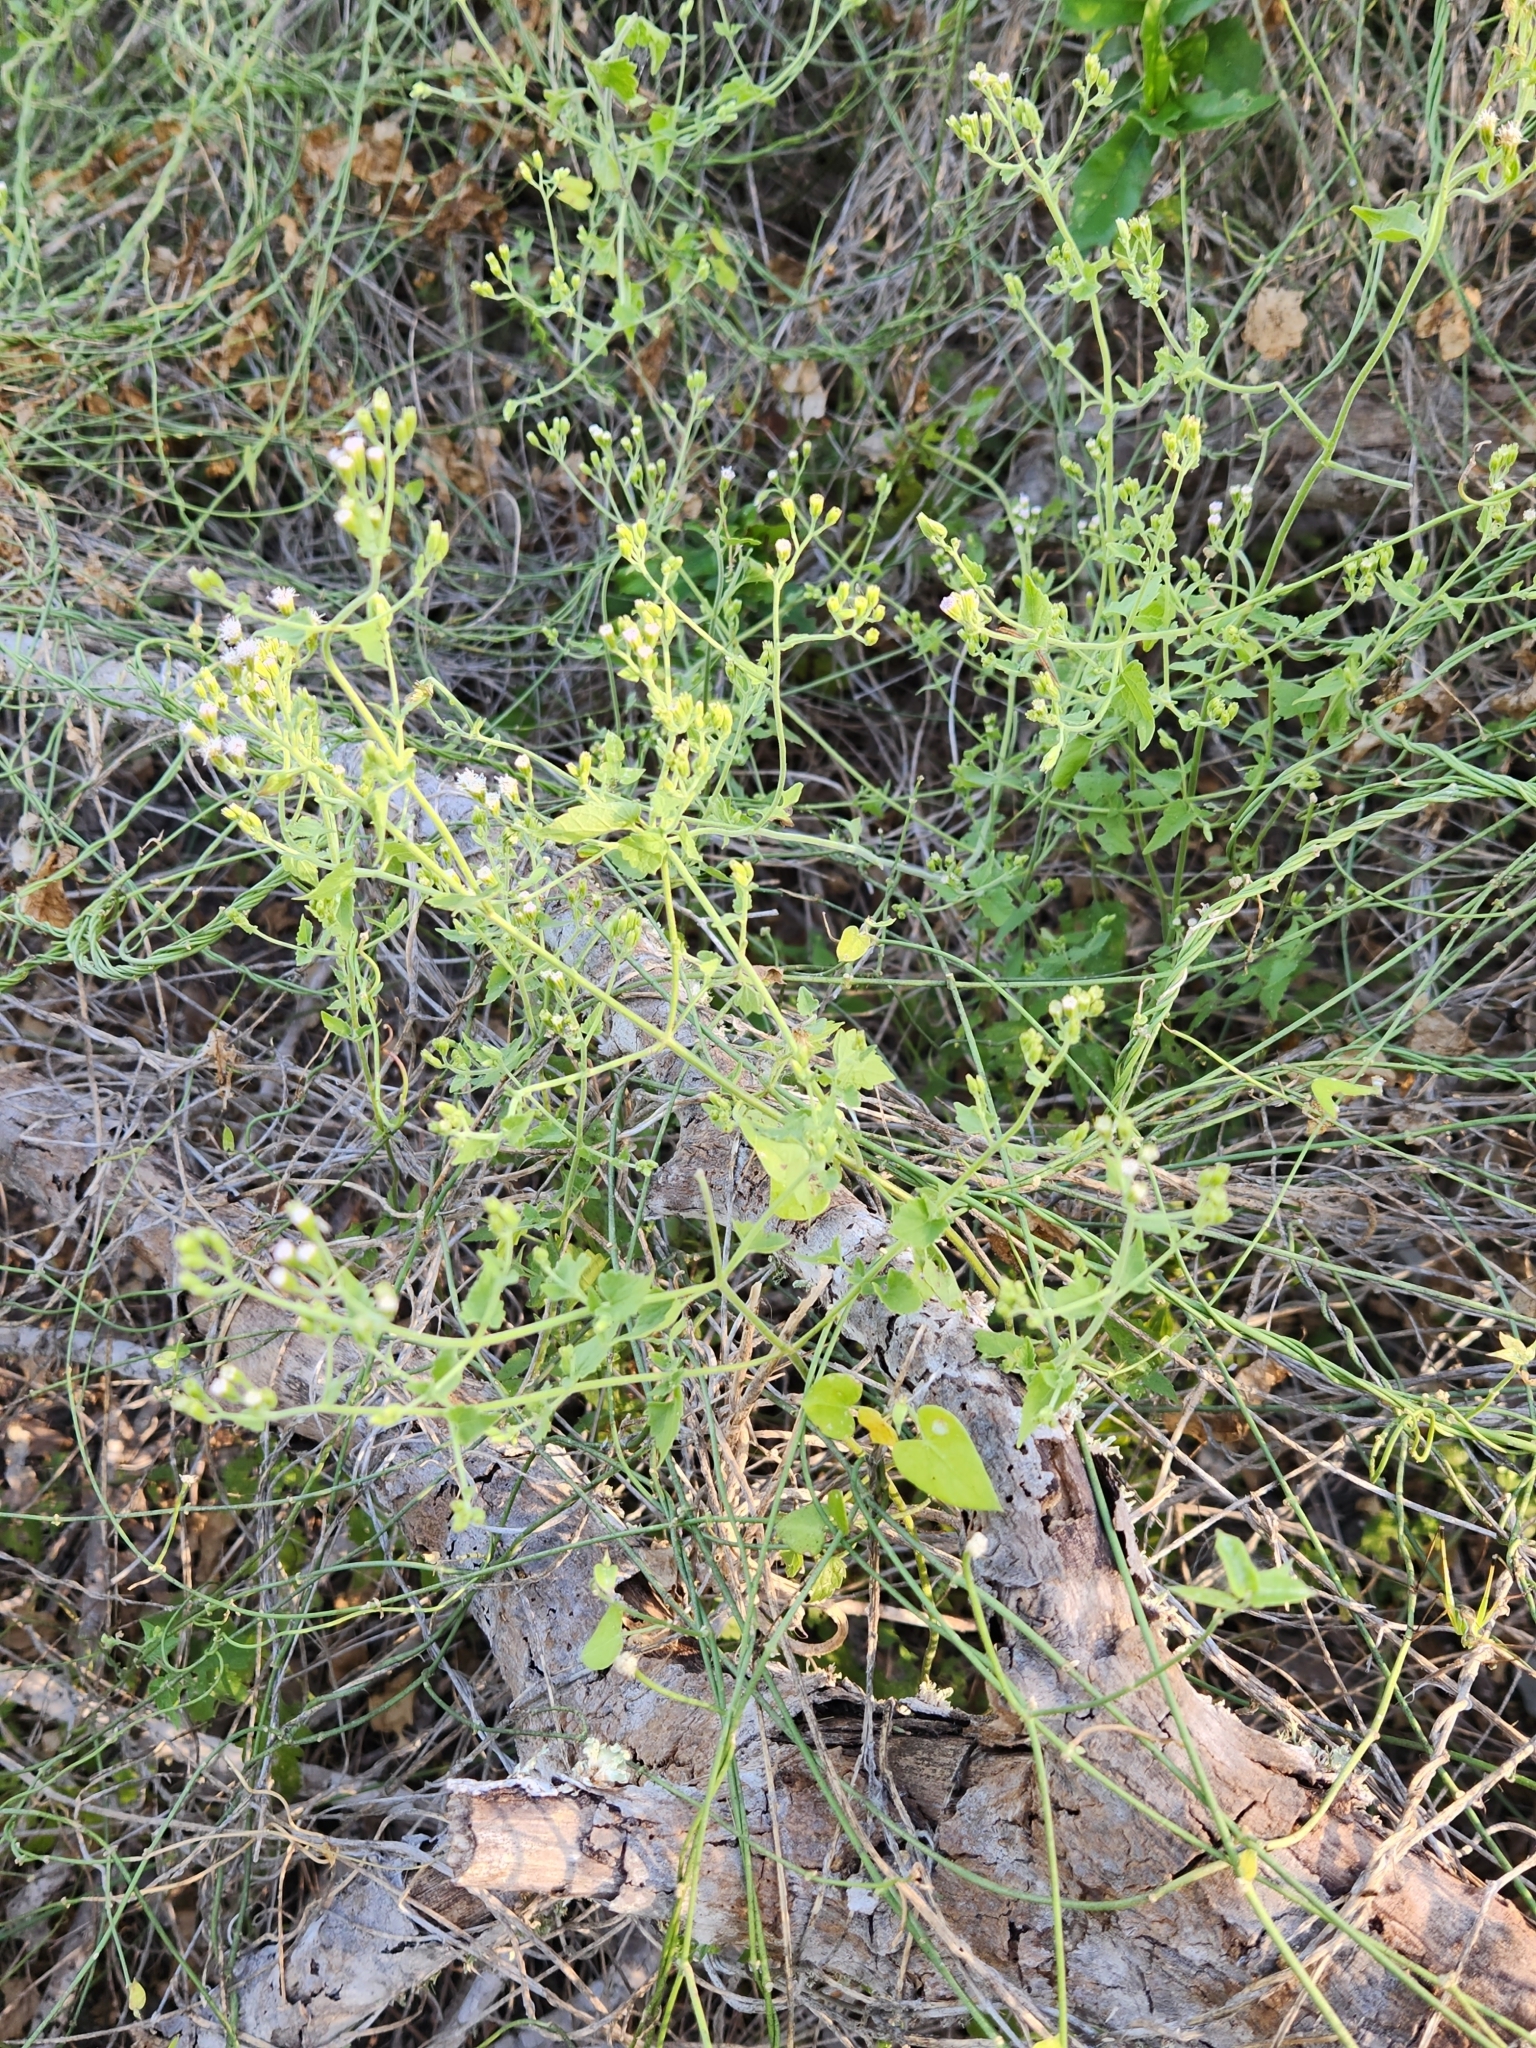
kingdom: Plantae
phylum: Tracheophyta
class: Magnoliopsida
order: Asterales
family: Asteraceae
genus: Fleischmannia
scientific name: Fleischmannia incarnata
